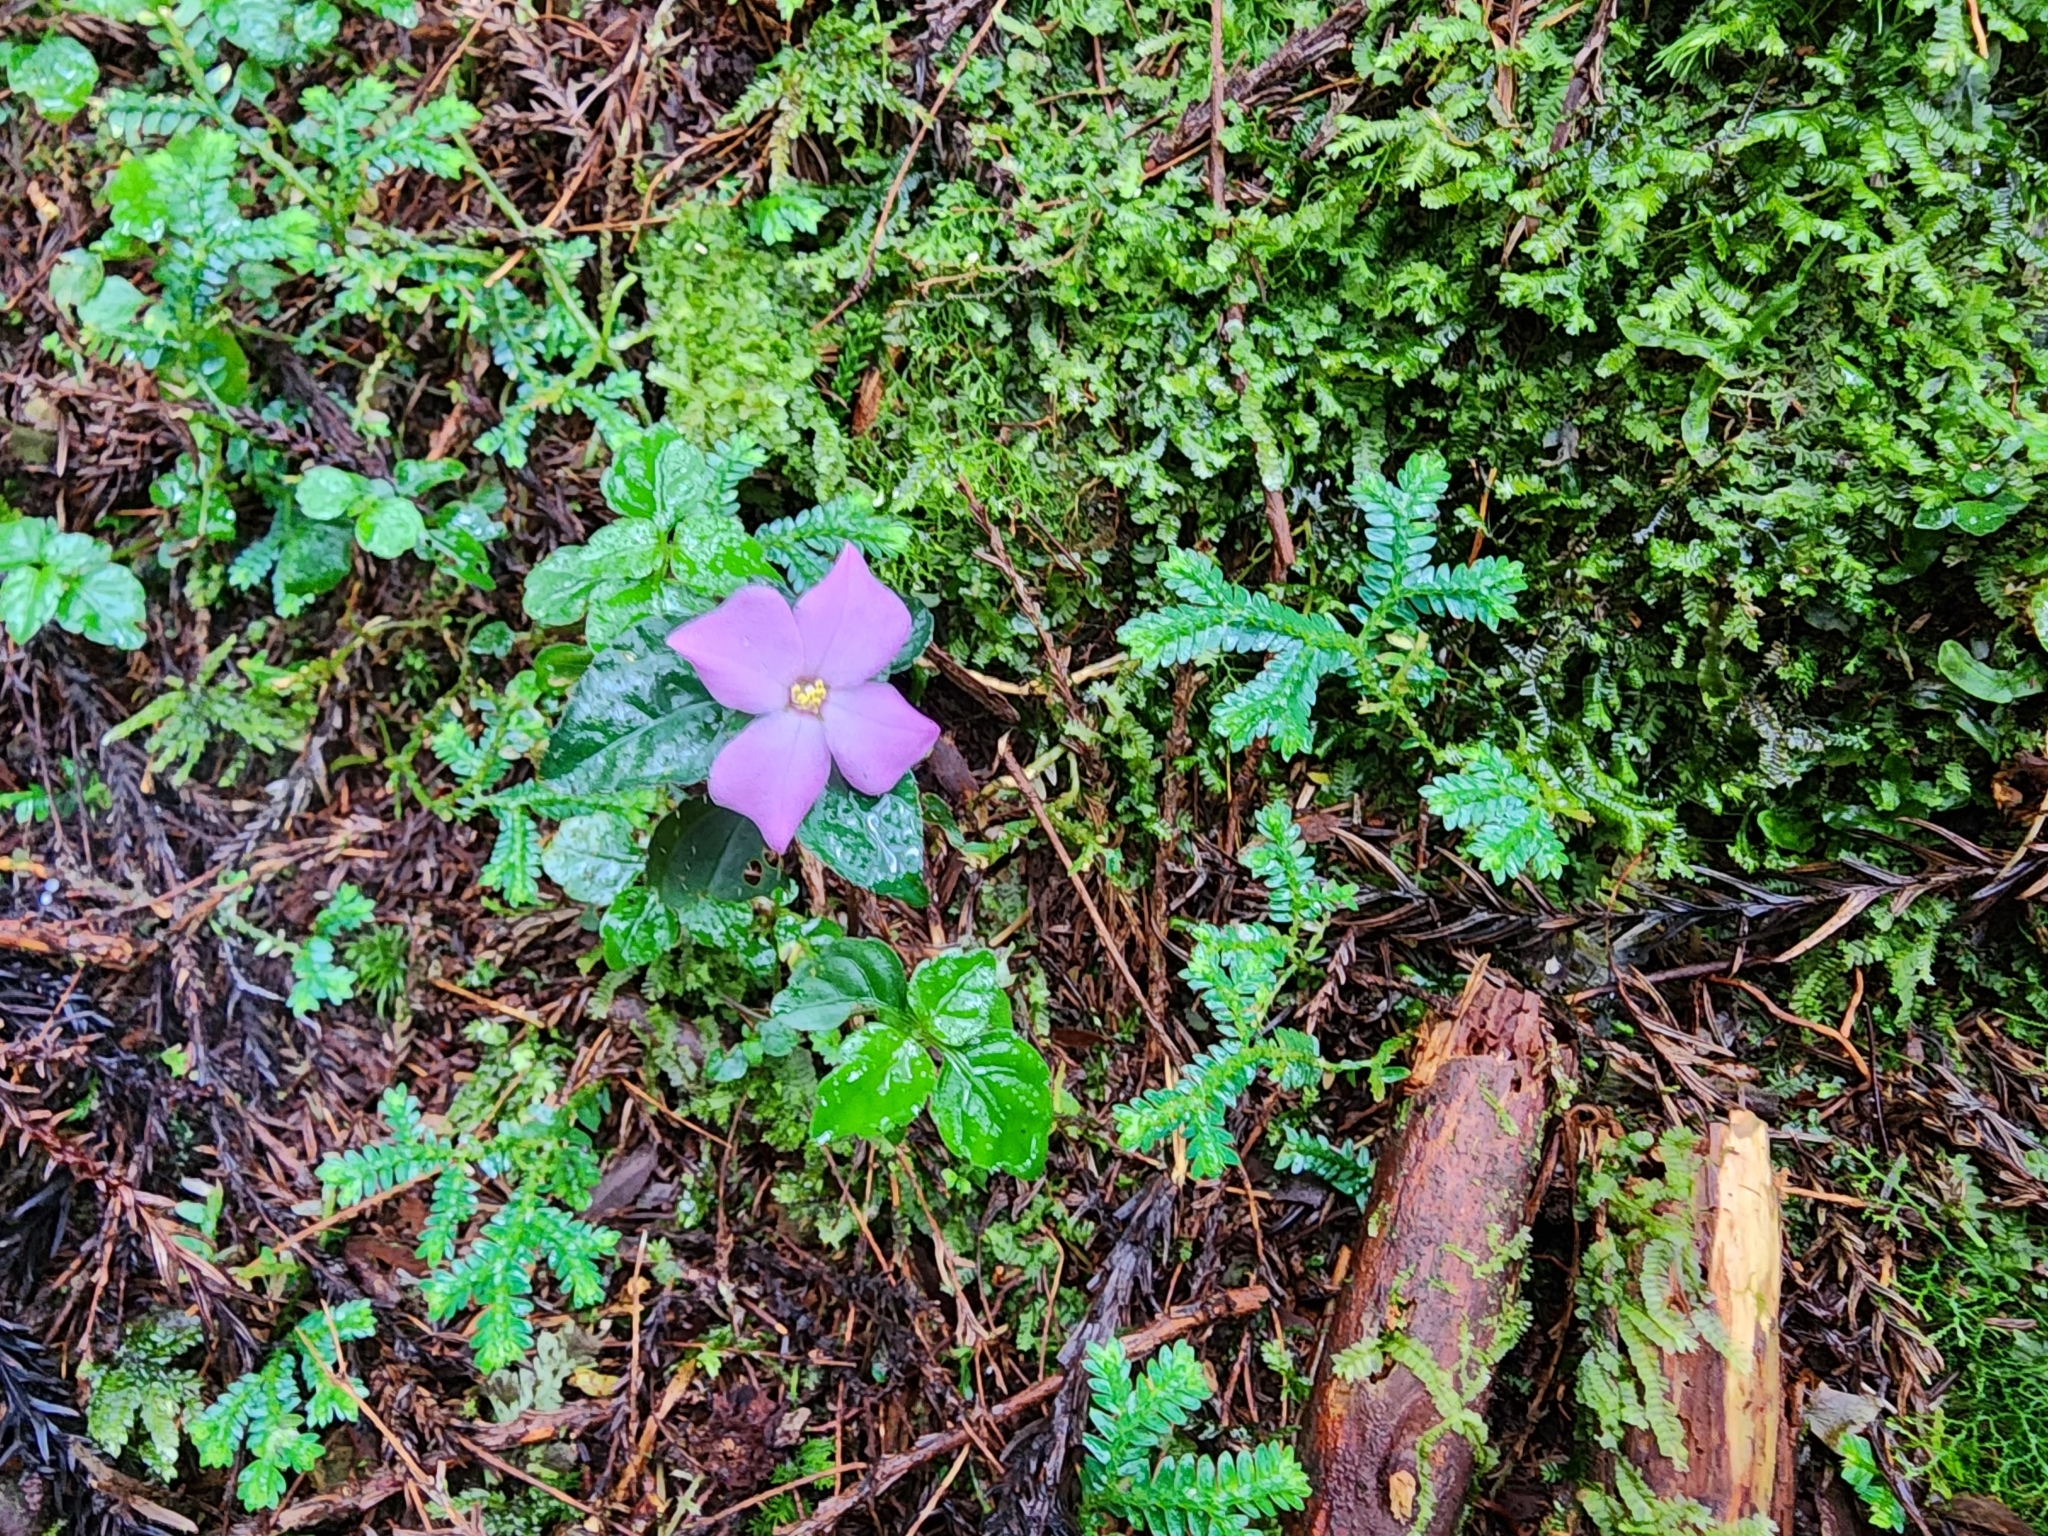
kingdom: Plantae
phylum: Tracheophyta
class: Magnoliopsida
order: Myrtales
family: Melastomataceae
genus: Sarcopyramis
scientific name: Sarcopyramis napalensis
